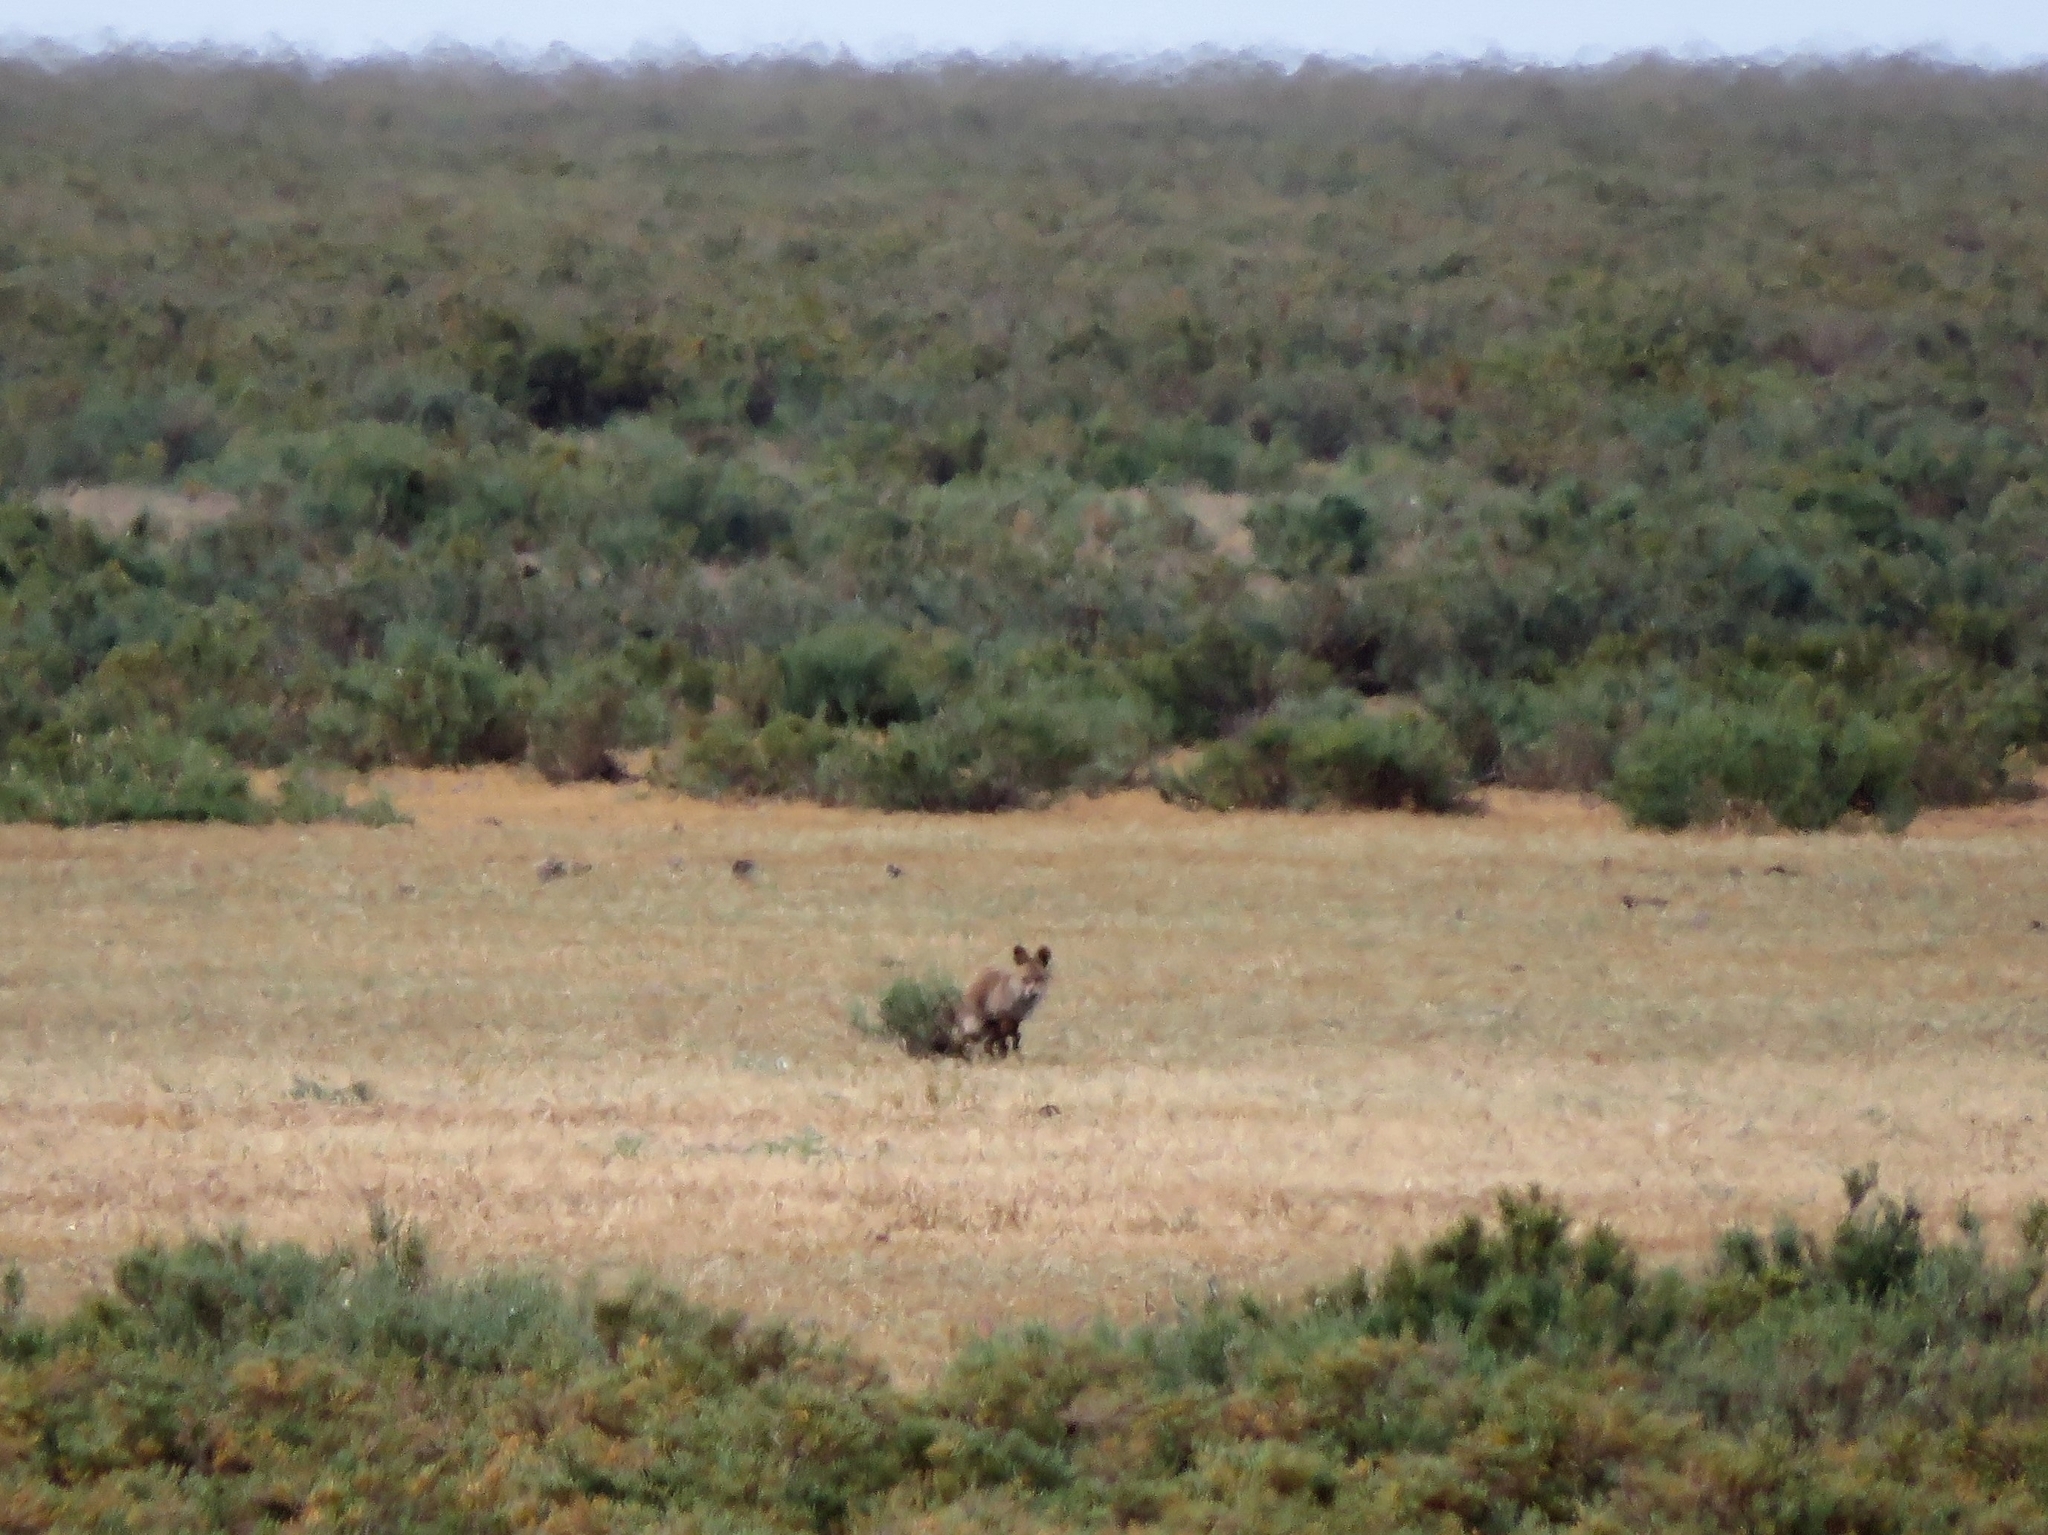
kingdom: Animalia
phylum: Chordata
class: Mammalia
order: Carnivora
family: Canidae
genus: Vulpes
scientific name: Vulpes vulpes
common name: Red fox
